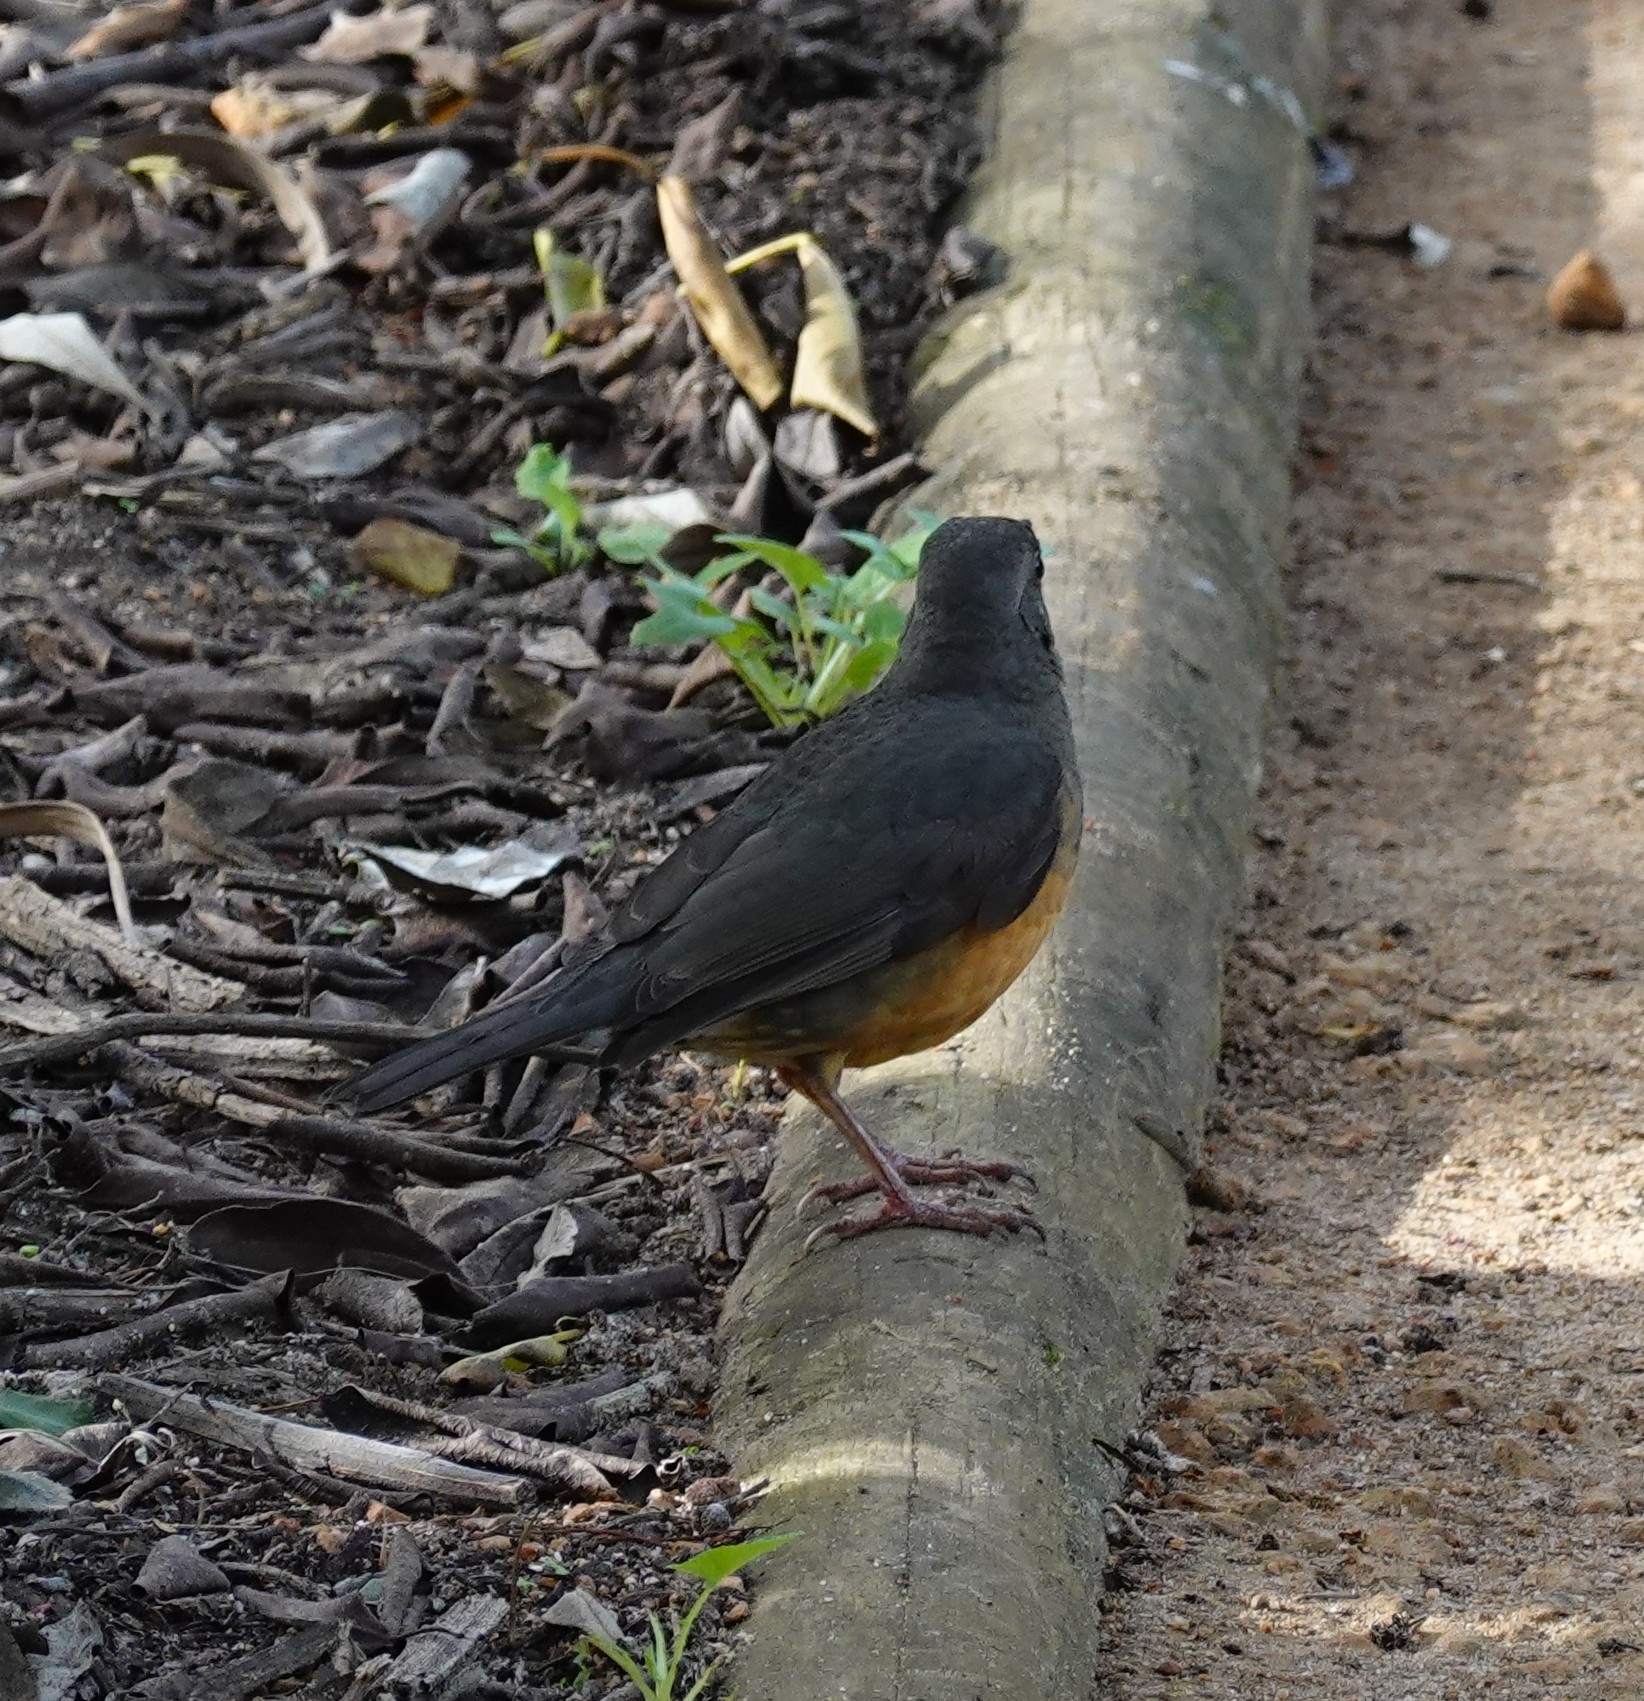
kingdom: Animalia
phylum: Chordata
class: Aves
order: Passeriformes
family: Turdidae
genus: Turdus
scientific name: Turdus olivaceus
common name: Olive thrush
